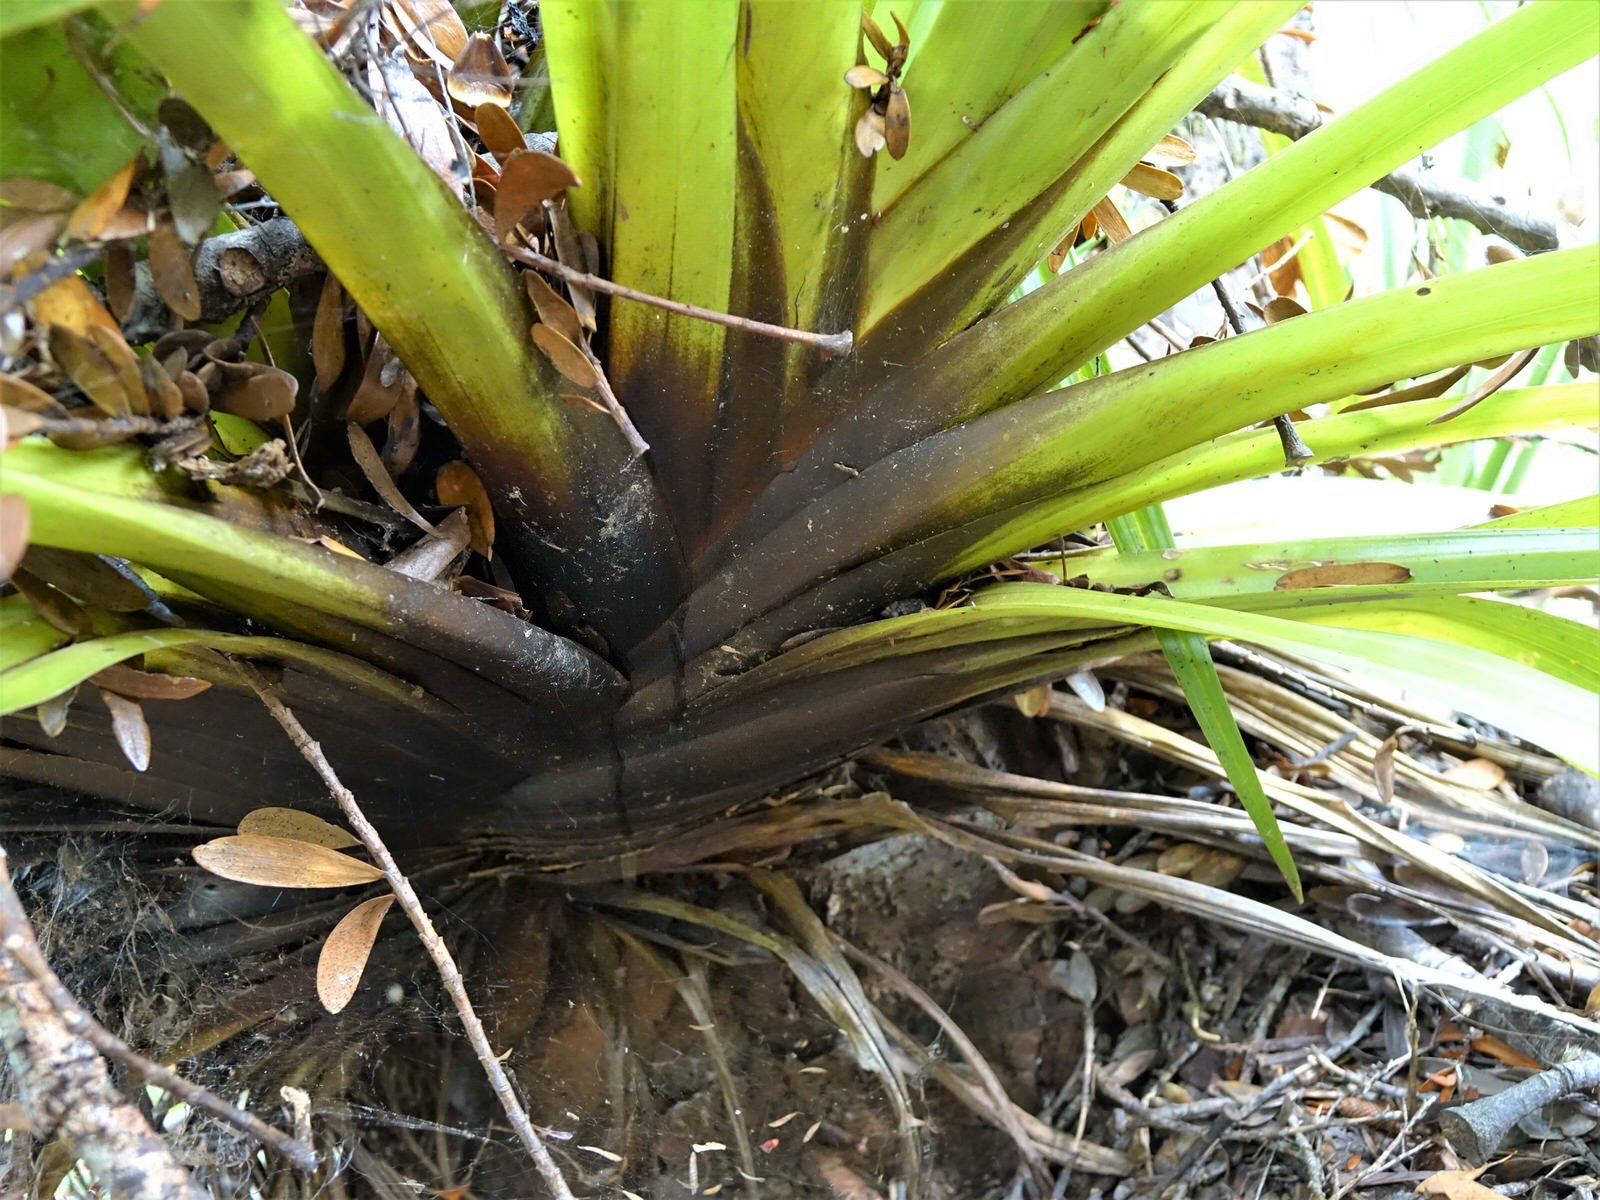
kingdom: Plantae
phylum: Tracheophyta
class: Liliopsida
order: Asparagales
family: Asteliaceae
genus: Astelia
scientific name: Astelia hastata
